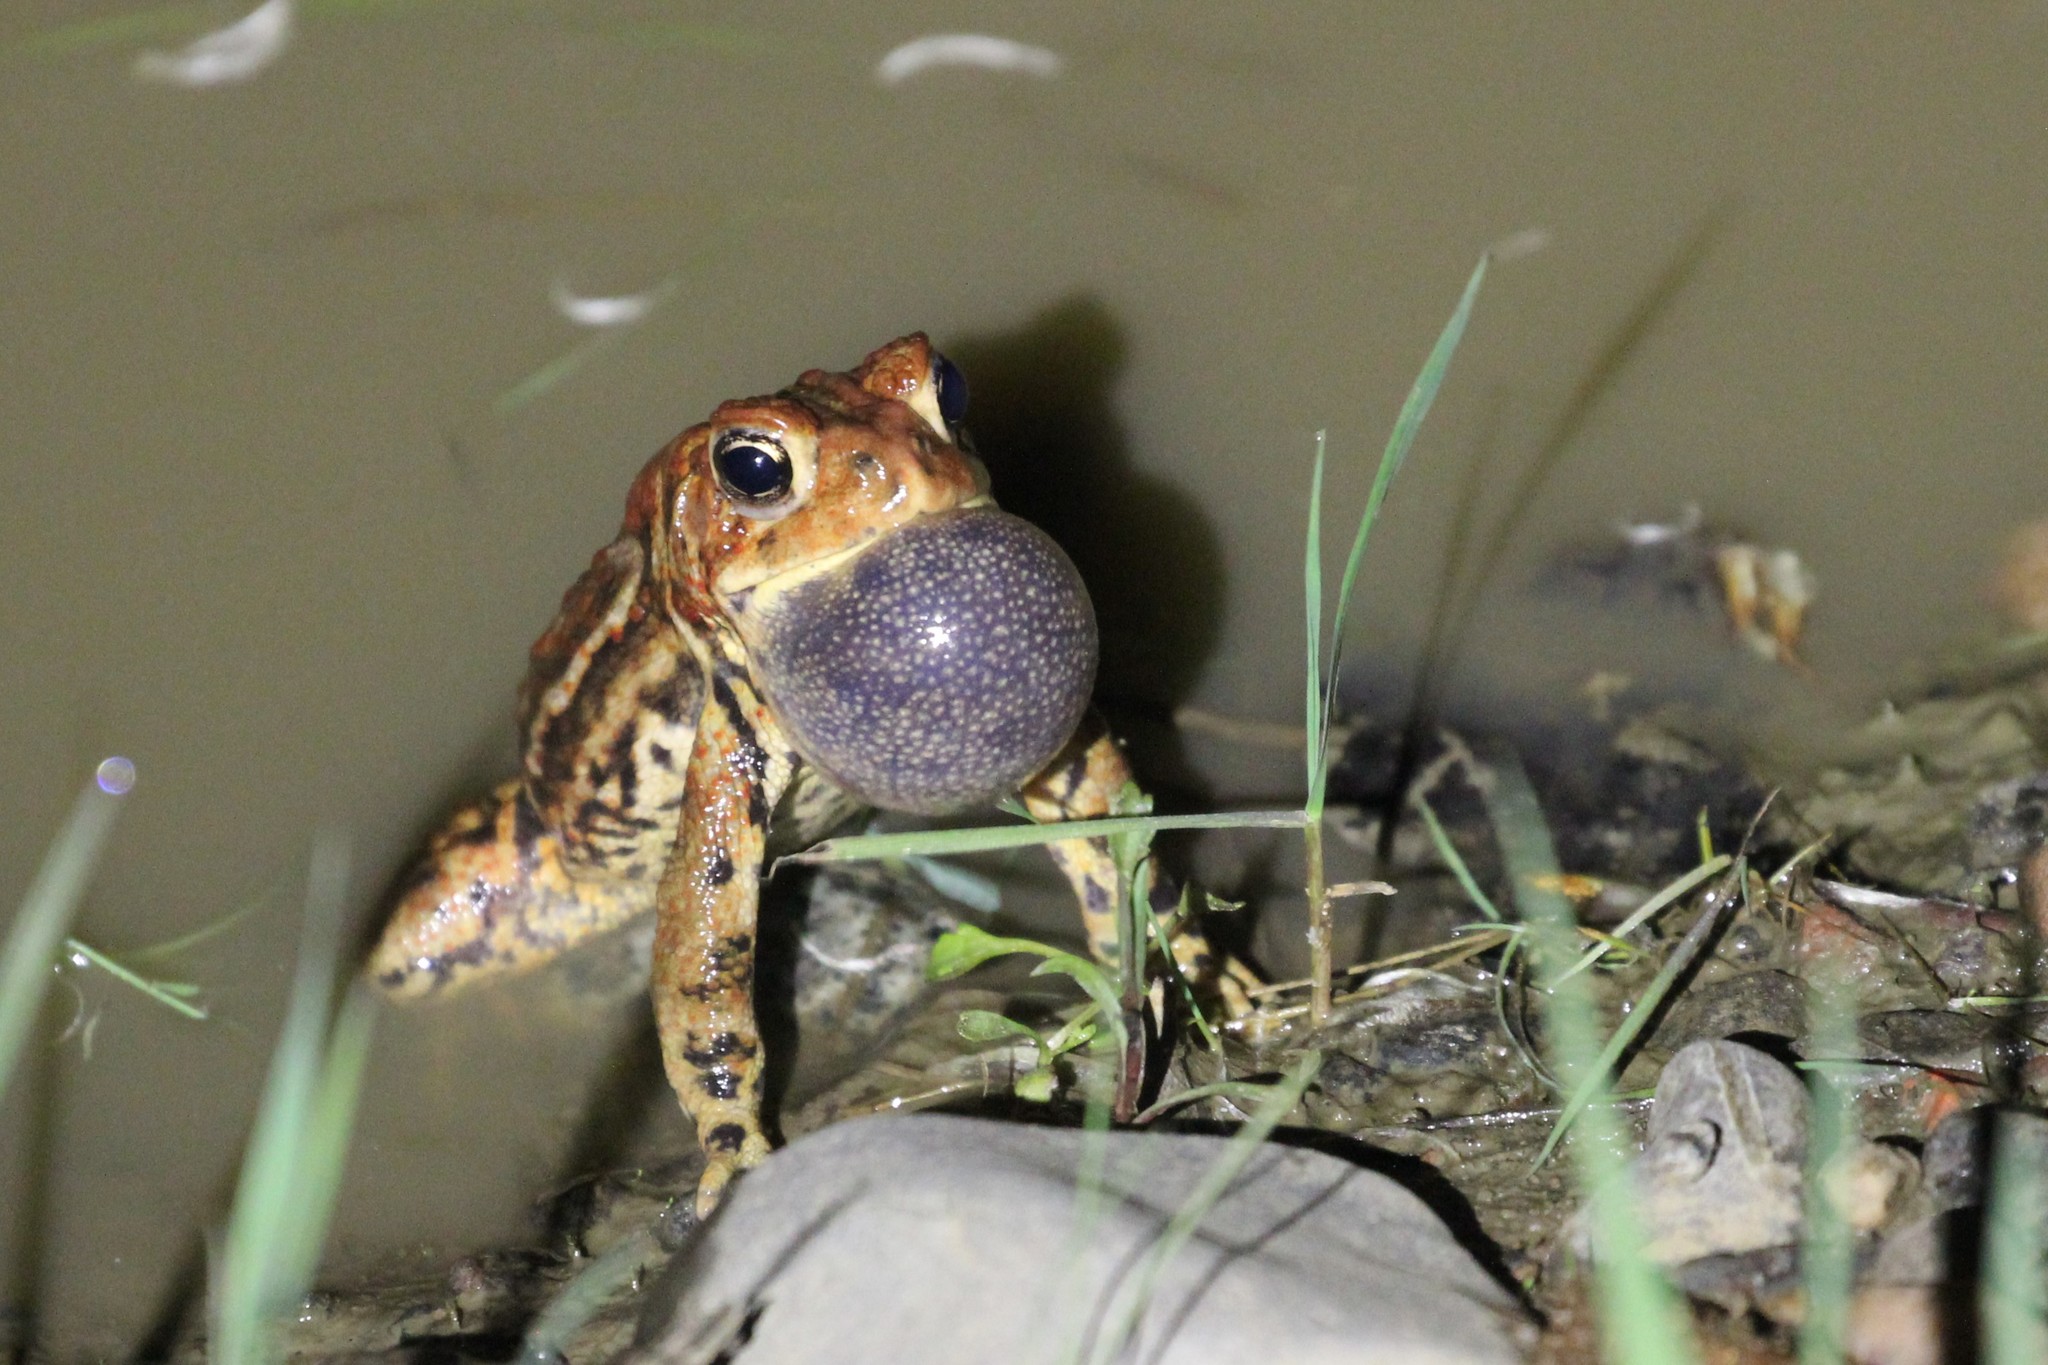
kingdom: Animalia
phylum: Chordata
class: Amphibia
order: Anura
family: Bufonidae
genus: Anaxyrus
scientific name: Anaxyrus americanus
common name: American toad
